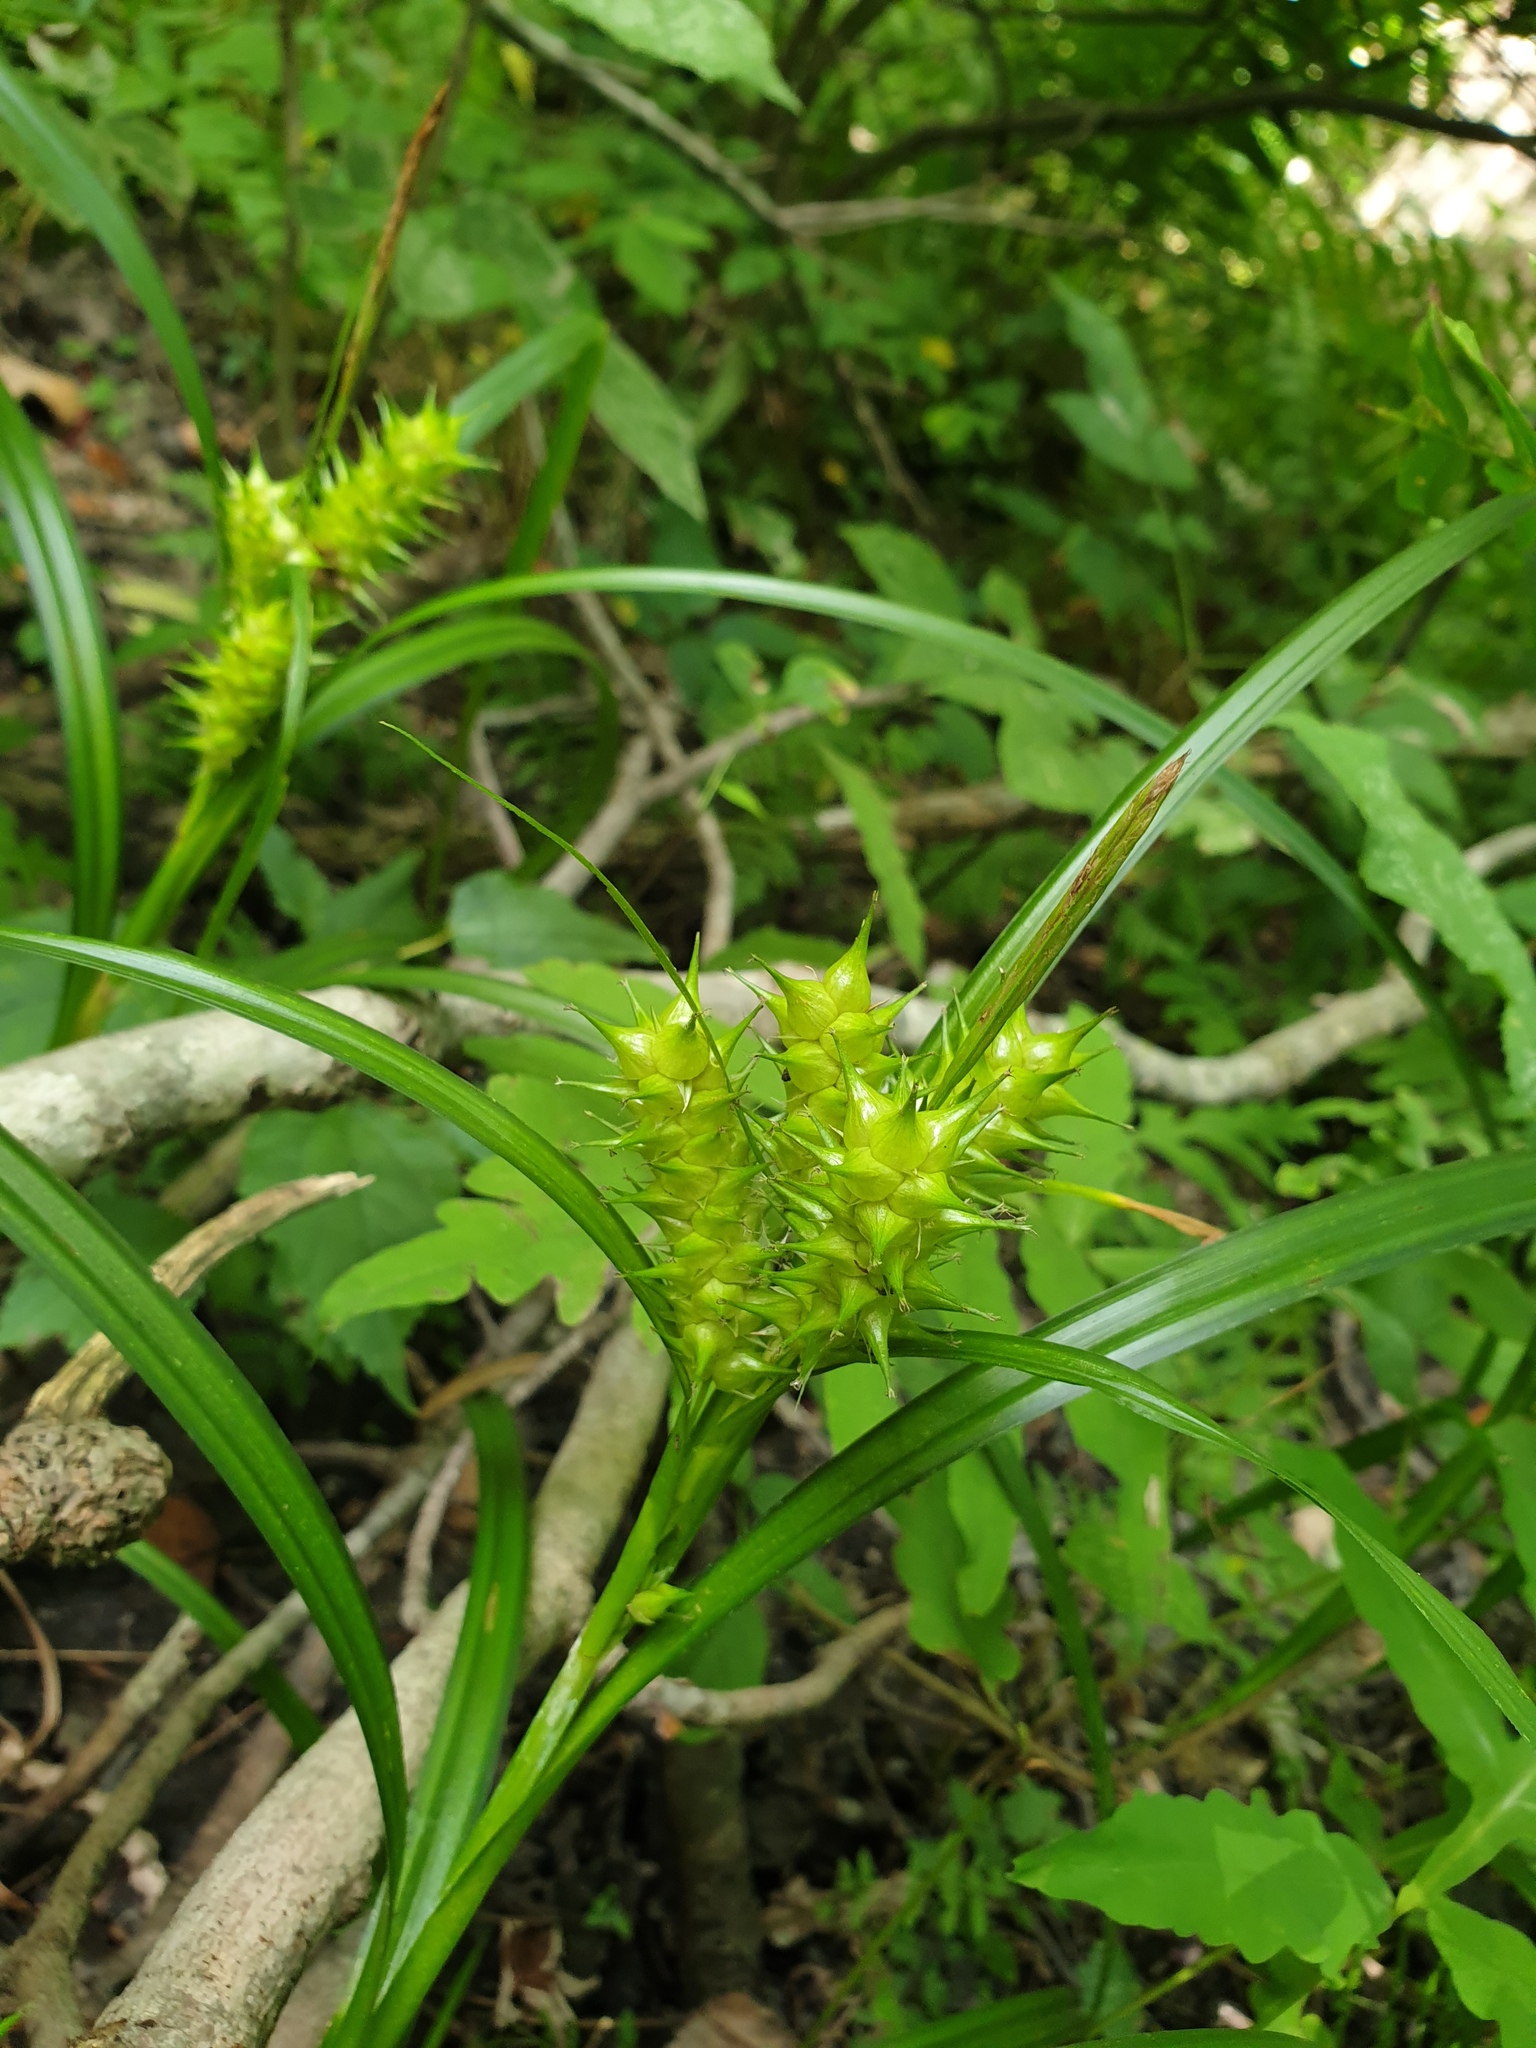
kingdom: Plantae
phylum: Tracheophyta
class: Liliopsida
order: Poales
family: Cyperaceae
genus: Carex
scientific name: Carex lupuliformis
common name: False hop sedge
